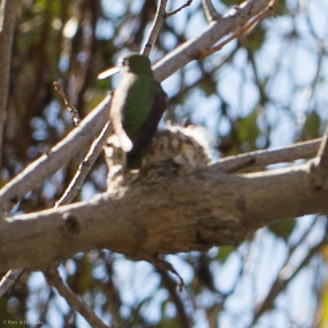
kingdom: Animalia
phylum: Chordata
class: Aves
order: Apodiformes
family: Trochilidae
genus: Calypte
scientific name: Calypte anna
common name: Anna's hummingbird
